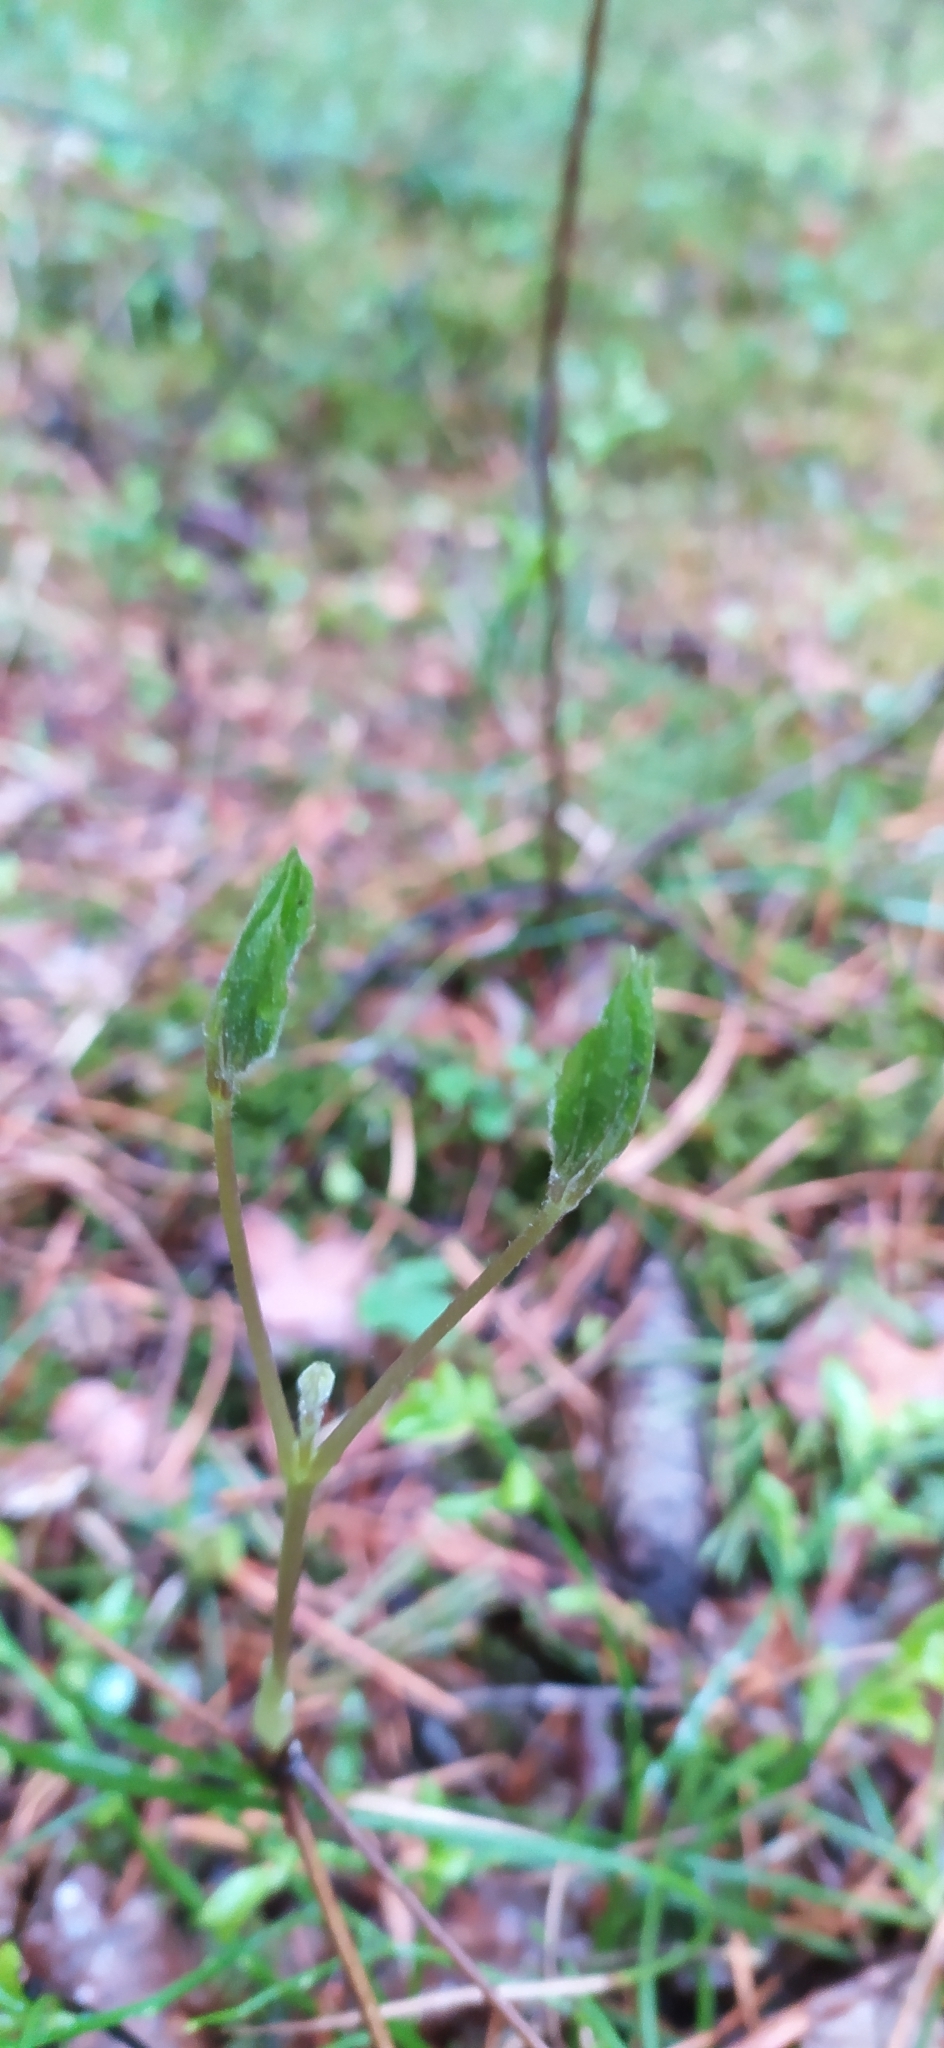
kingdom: Plantae
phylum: Tracheophyta
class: Magnoliopsida
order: Ranunculales
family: Ranunculaceae
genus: Clematis
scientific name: Clematis sibirica
